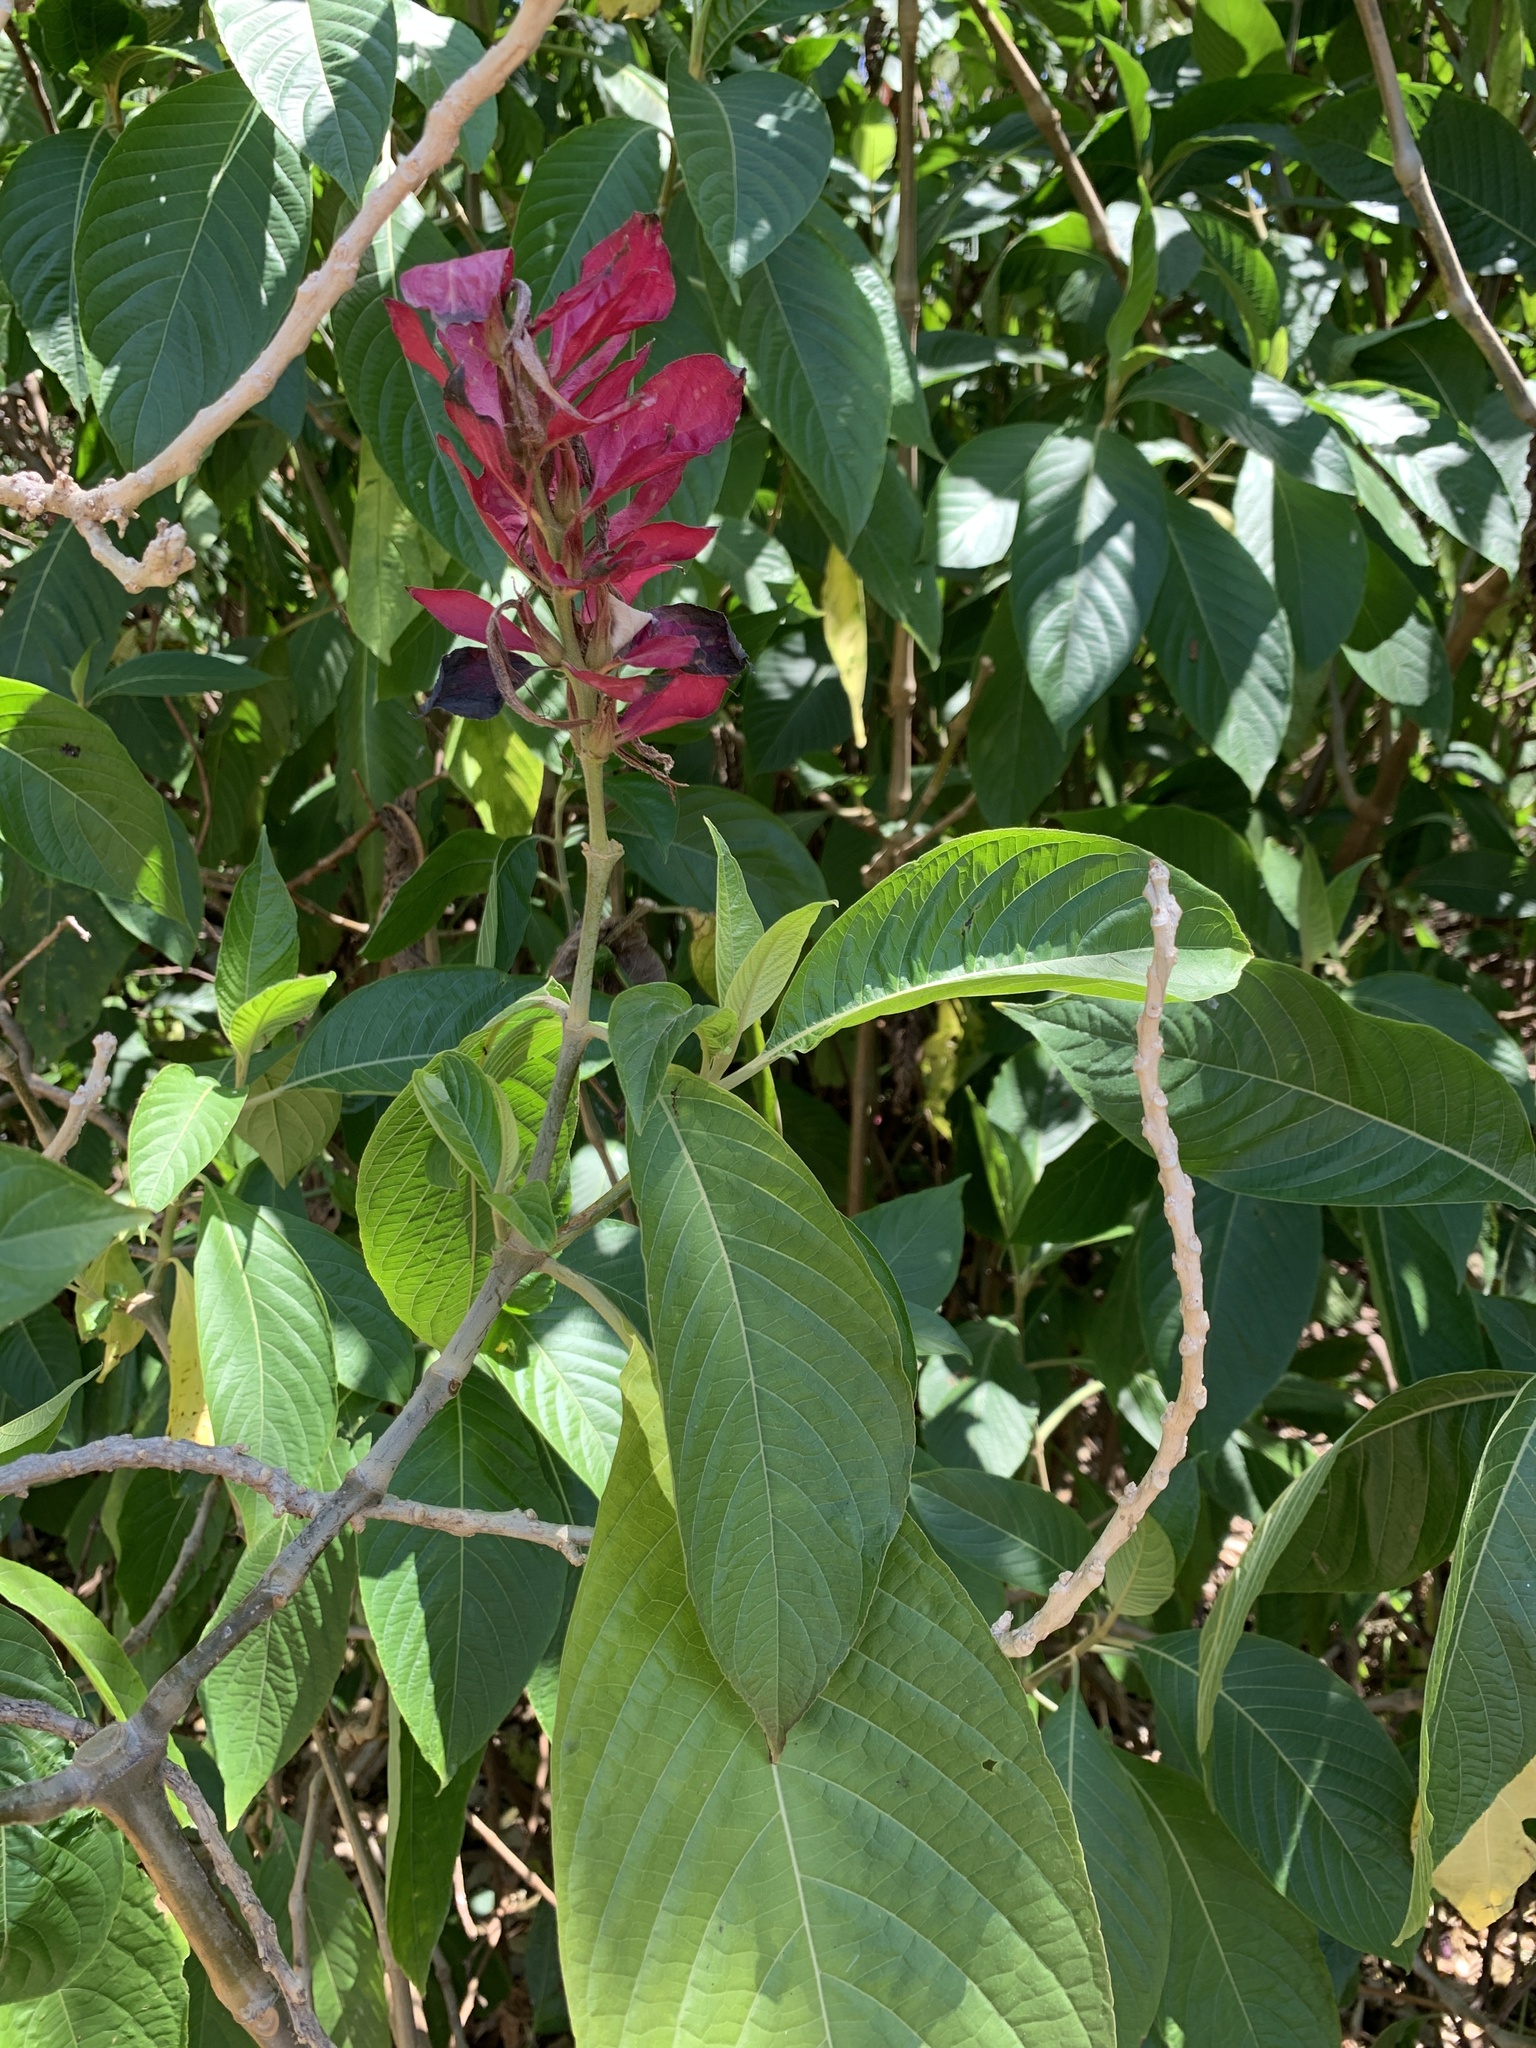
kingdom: Plantae
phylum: Tracheophyta
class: Magnoliopsida
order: Lamiales
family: Acanthaceae
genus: Megaskepasma
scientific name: Megaskepasma erythrochlamys
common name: Brazilian red-cloak
